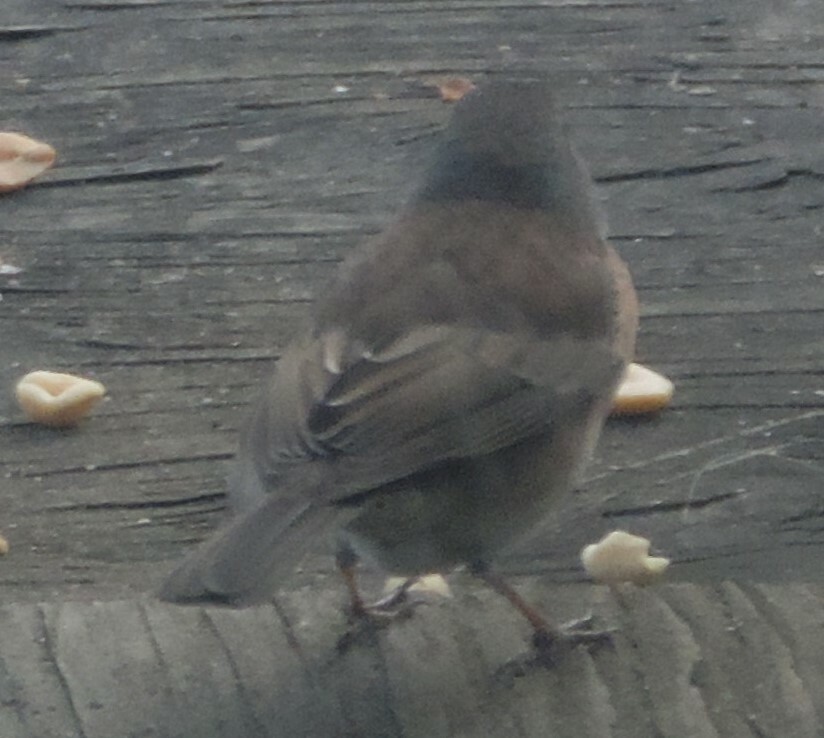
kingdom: Animalia
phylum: Chordata
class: Aves
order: Passeriformes
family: Passerellidae
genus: Junco
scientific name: Junco hyemalis
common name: Dark-eyed junco
